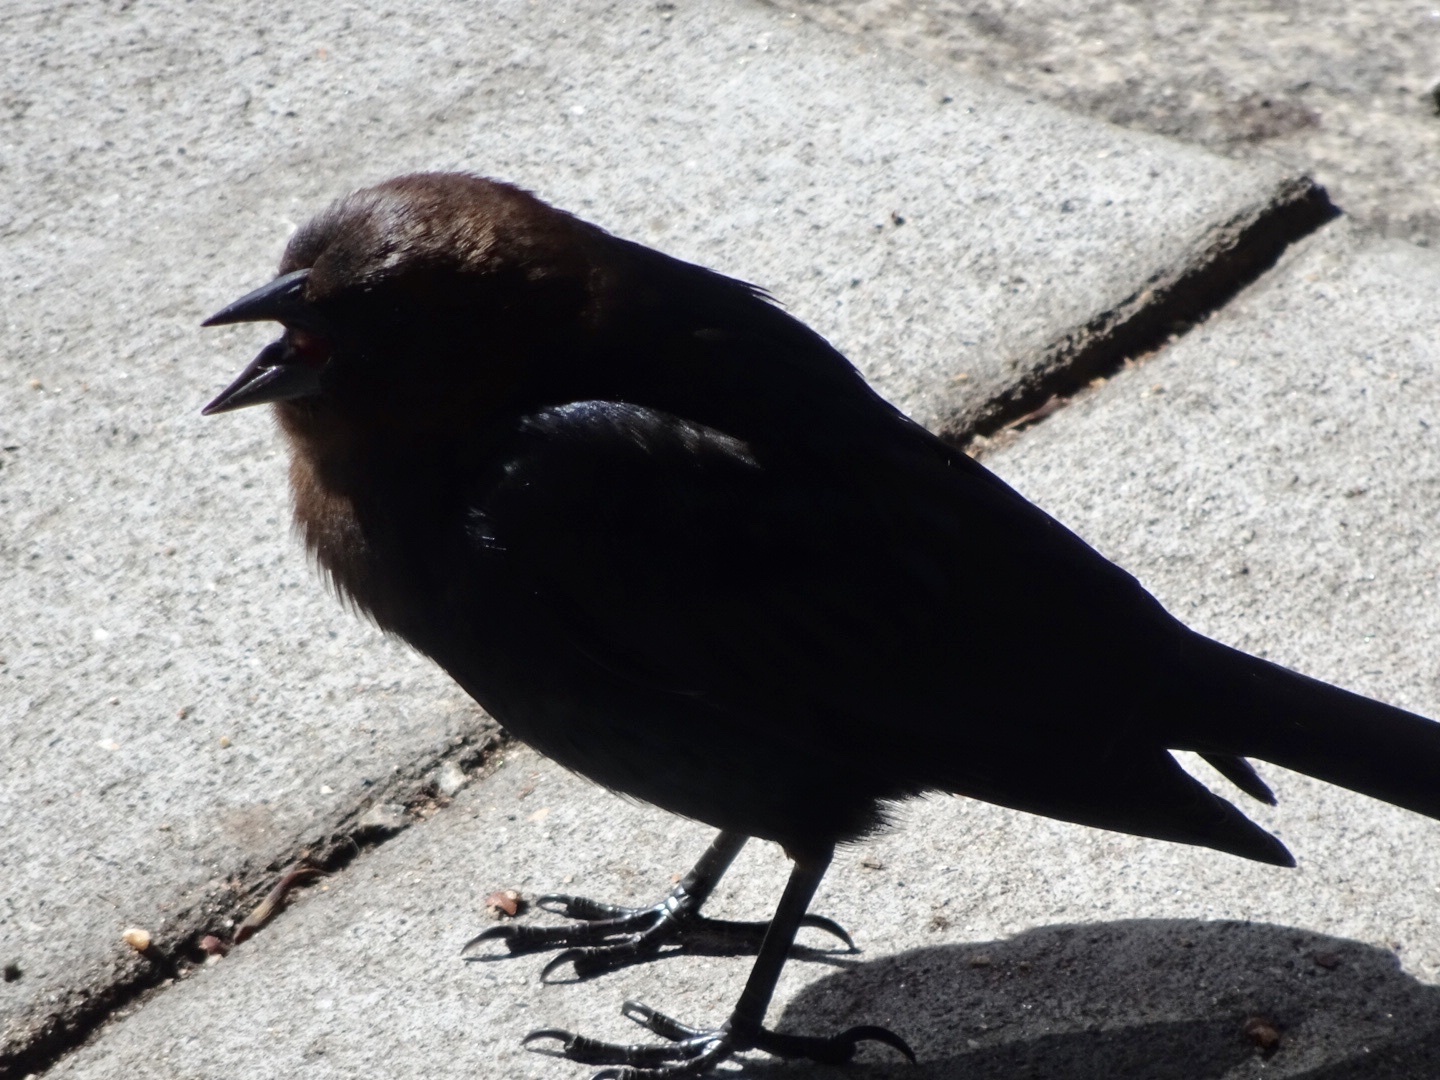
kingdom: Animalia
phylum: Chordata
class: Aves
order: Passeriformes
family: Icteridae
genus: Molothrus
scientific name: Molothrus ater
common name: Brown-headed cowbird
